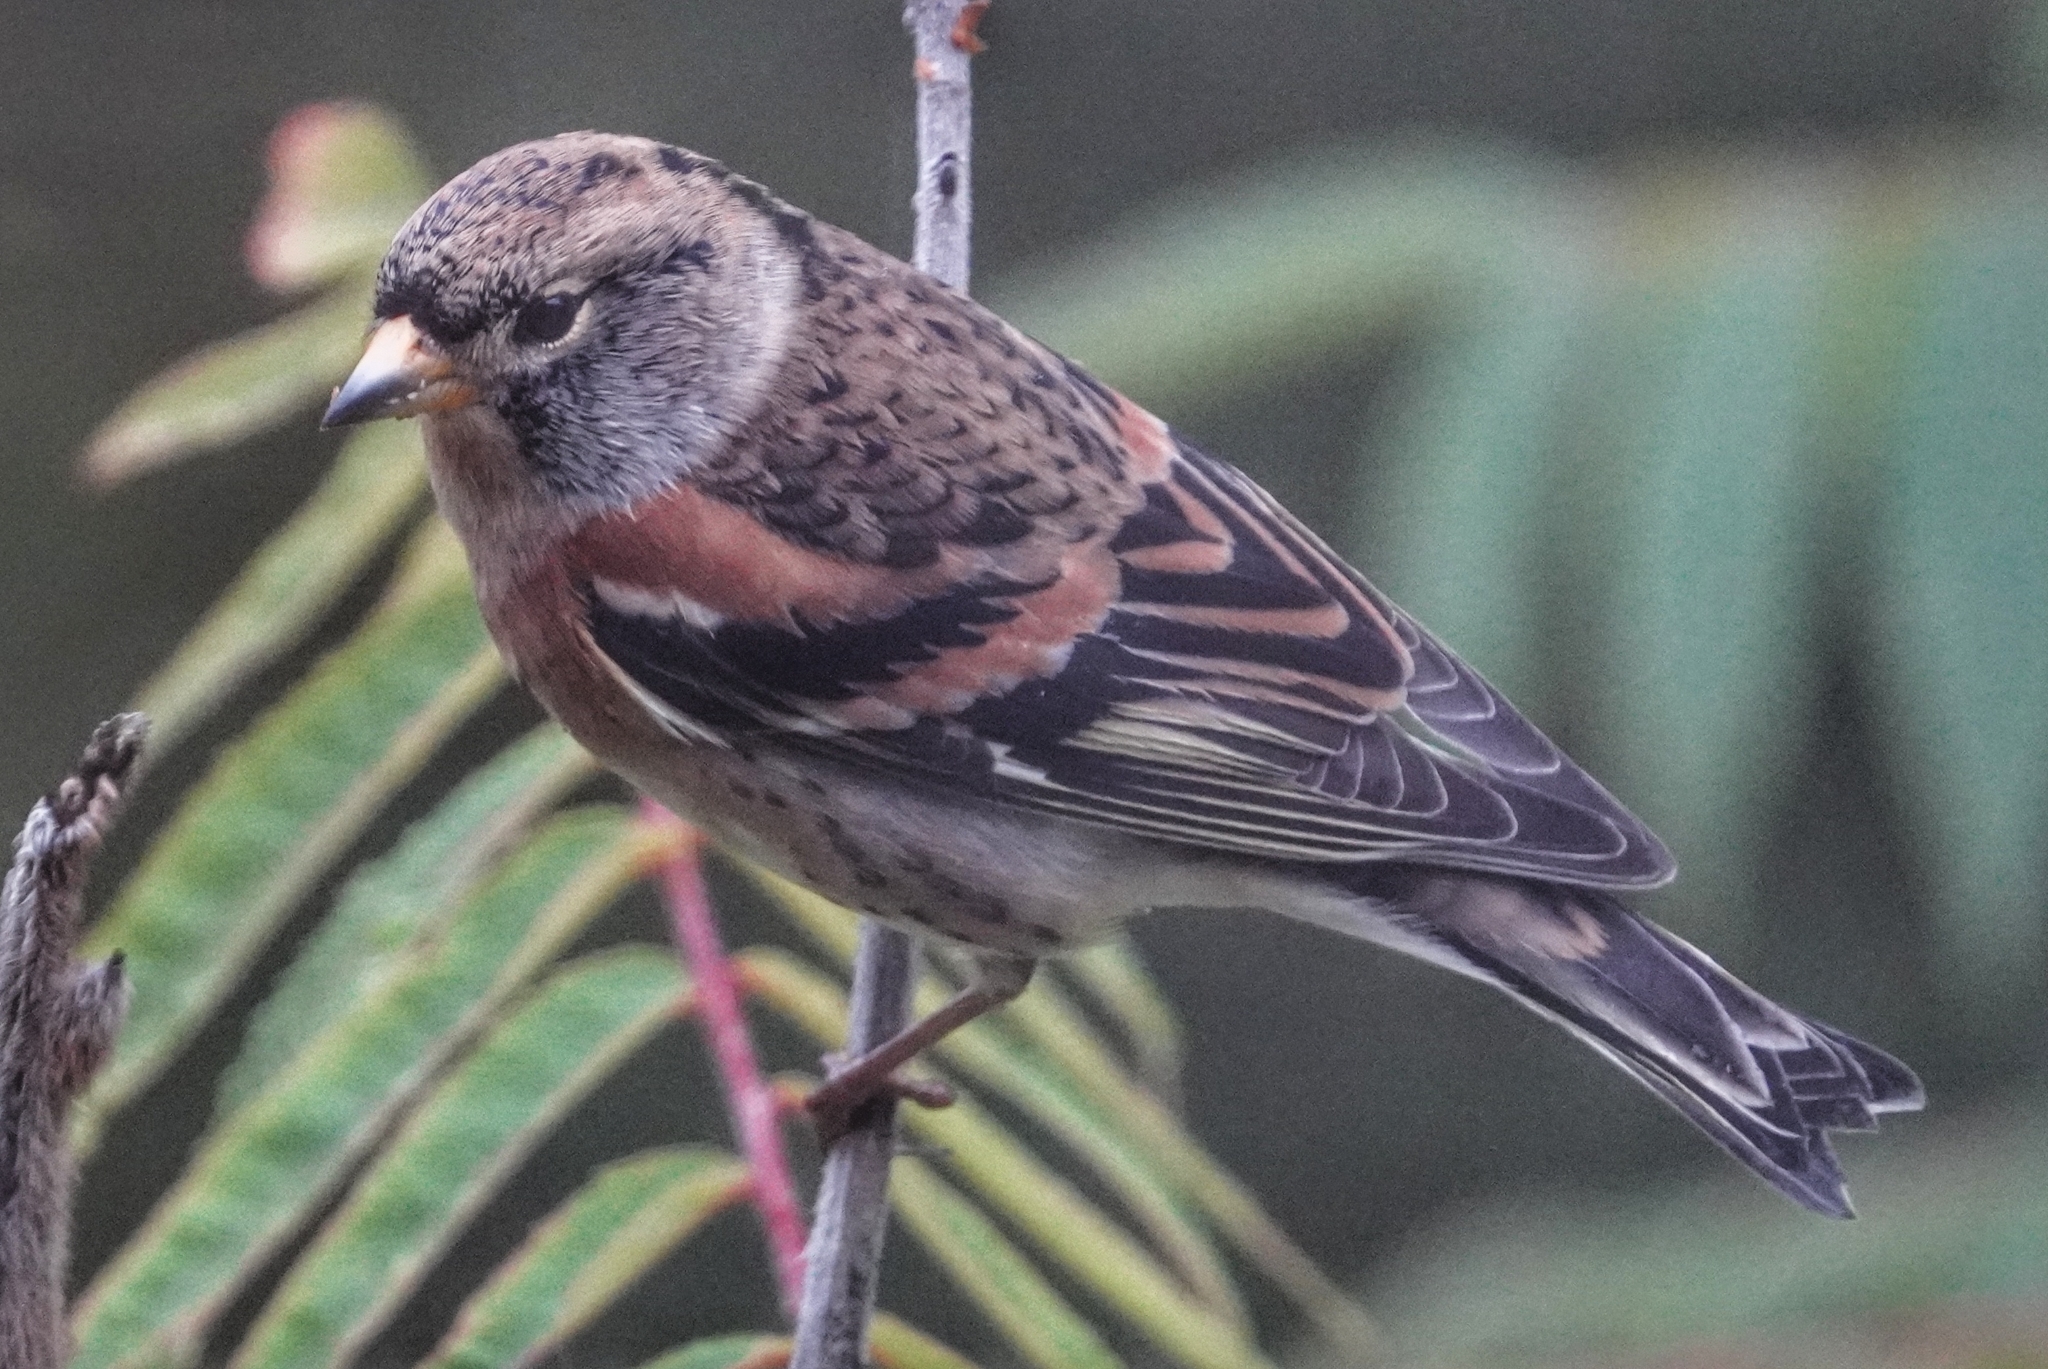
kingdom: Animalia
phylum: Chordata
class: Aves
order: Passeriformes
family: Fringillidae
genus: Fringilla
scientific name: Fringilla montifringilla
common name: Brambling
